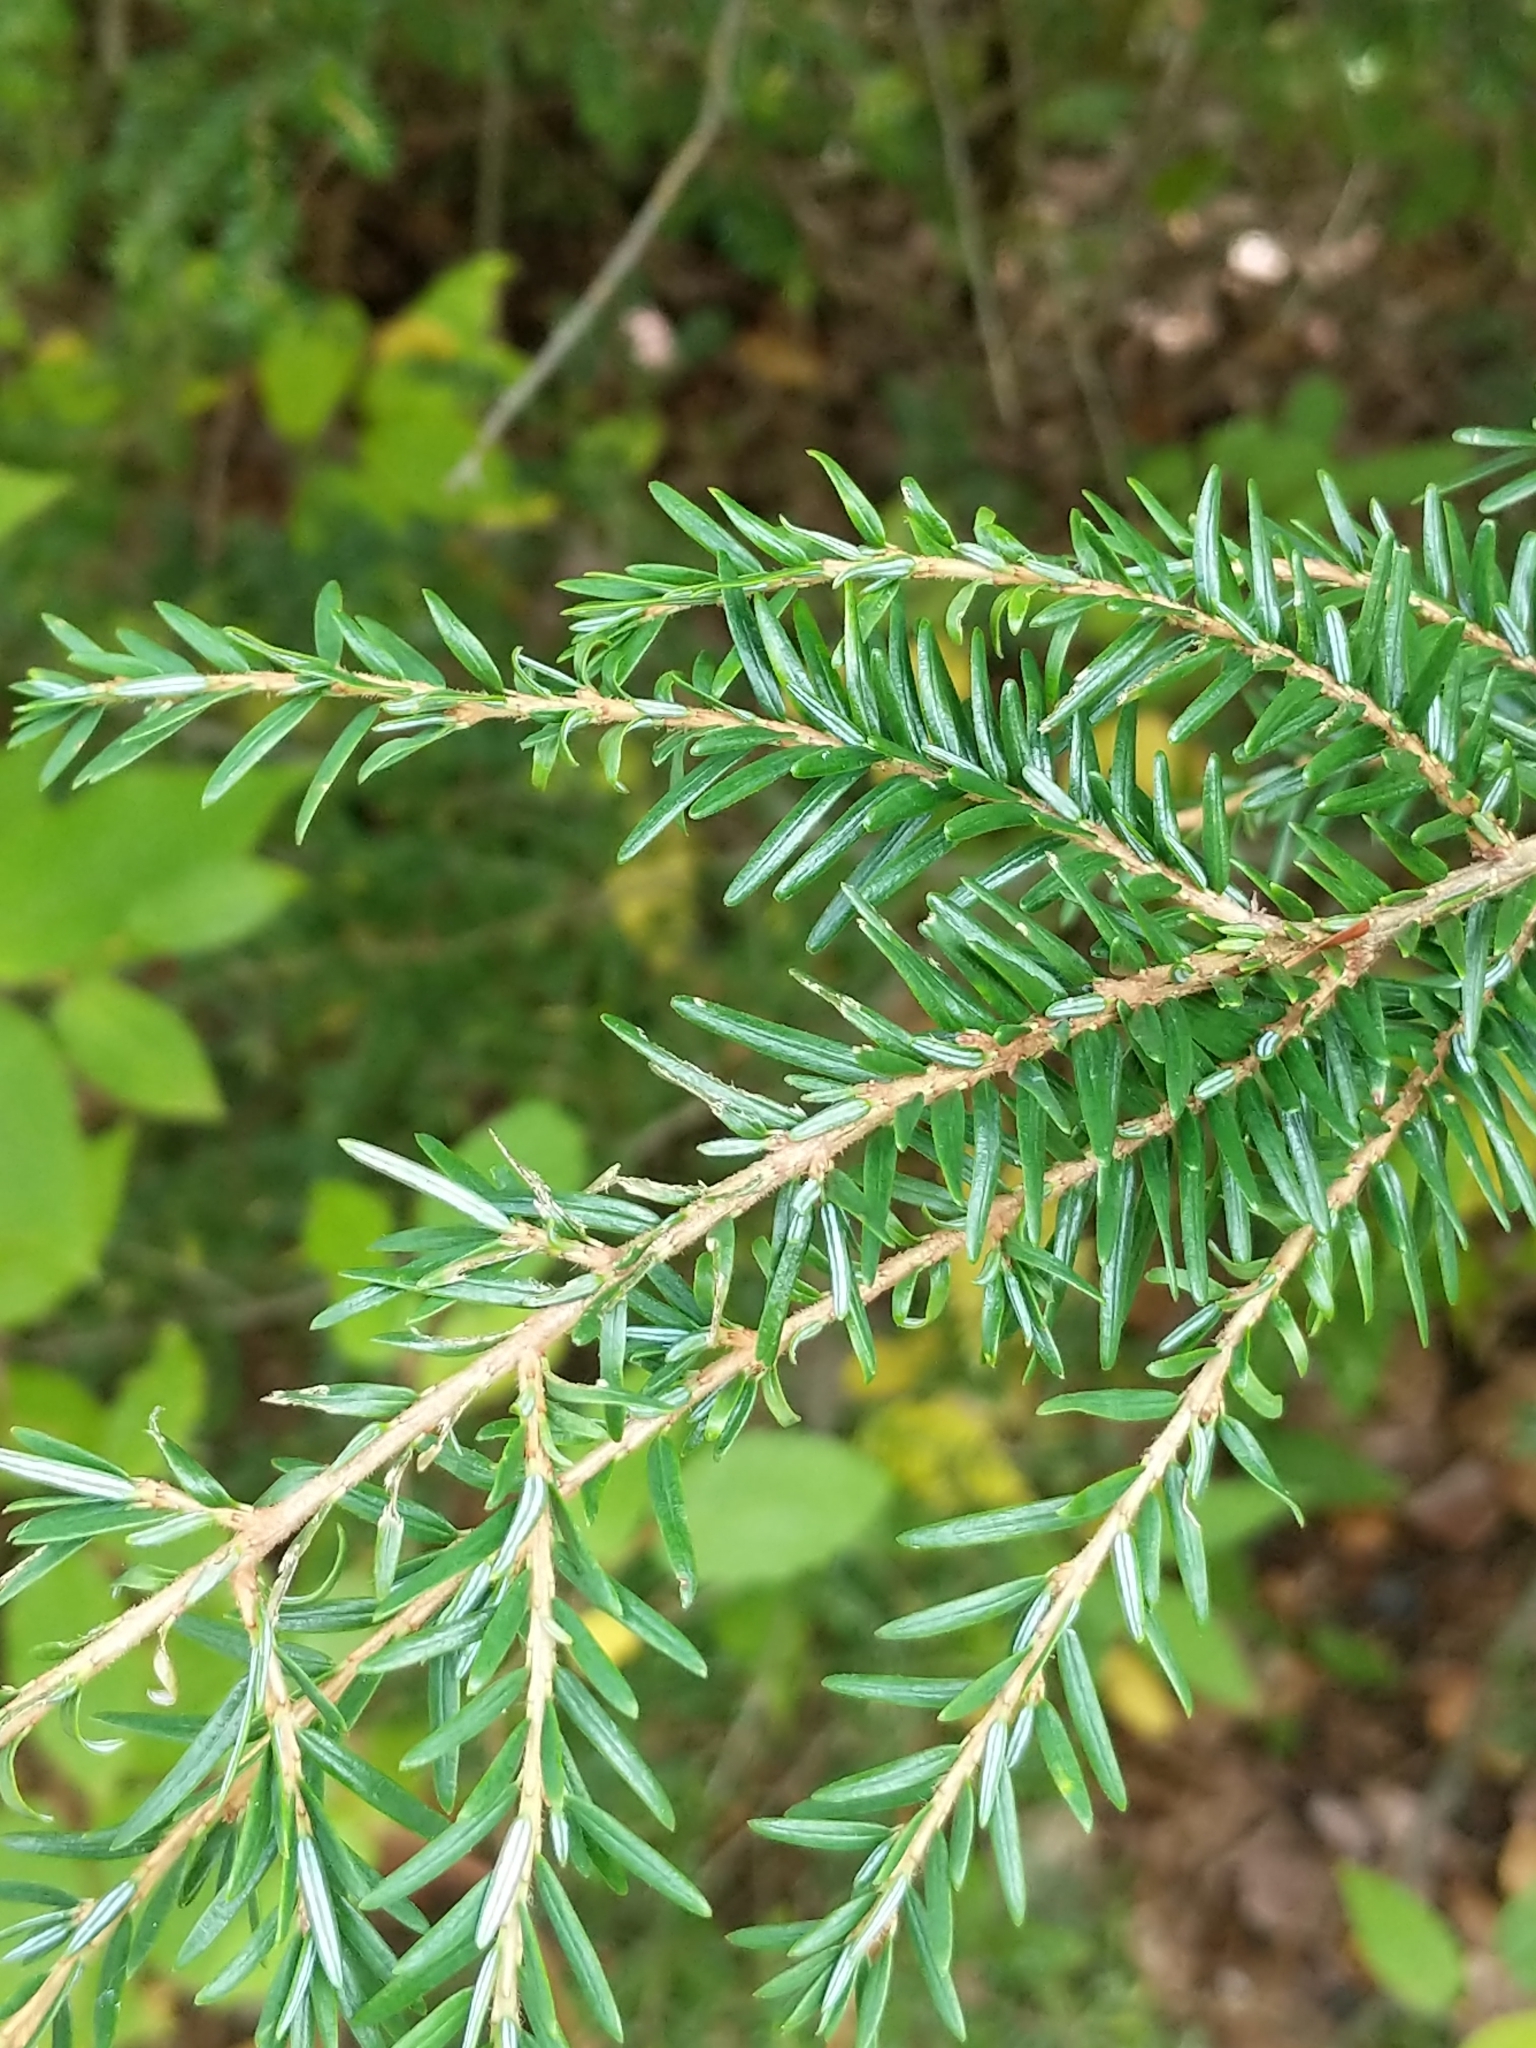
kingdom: Plantae
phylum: Tracheophyta
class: Pinopsida
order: Pinales
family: Pinaceae
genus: Tsuga
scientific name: Tsuga canadensis
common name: Eastern hemlock
